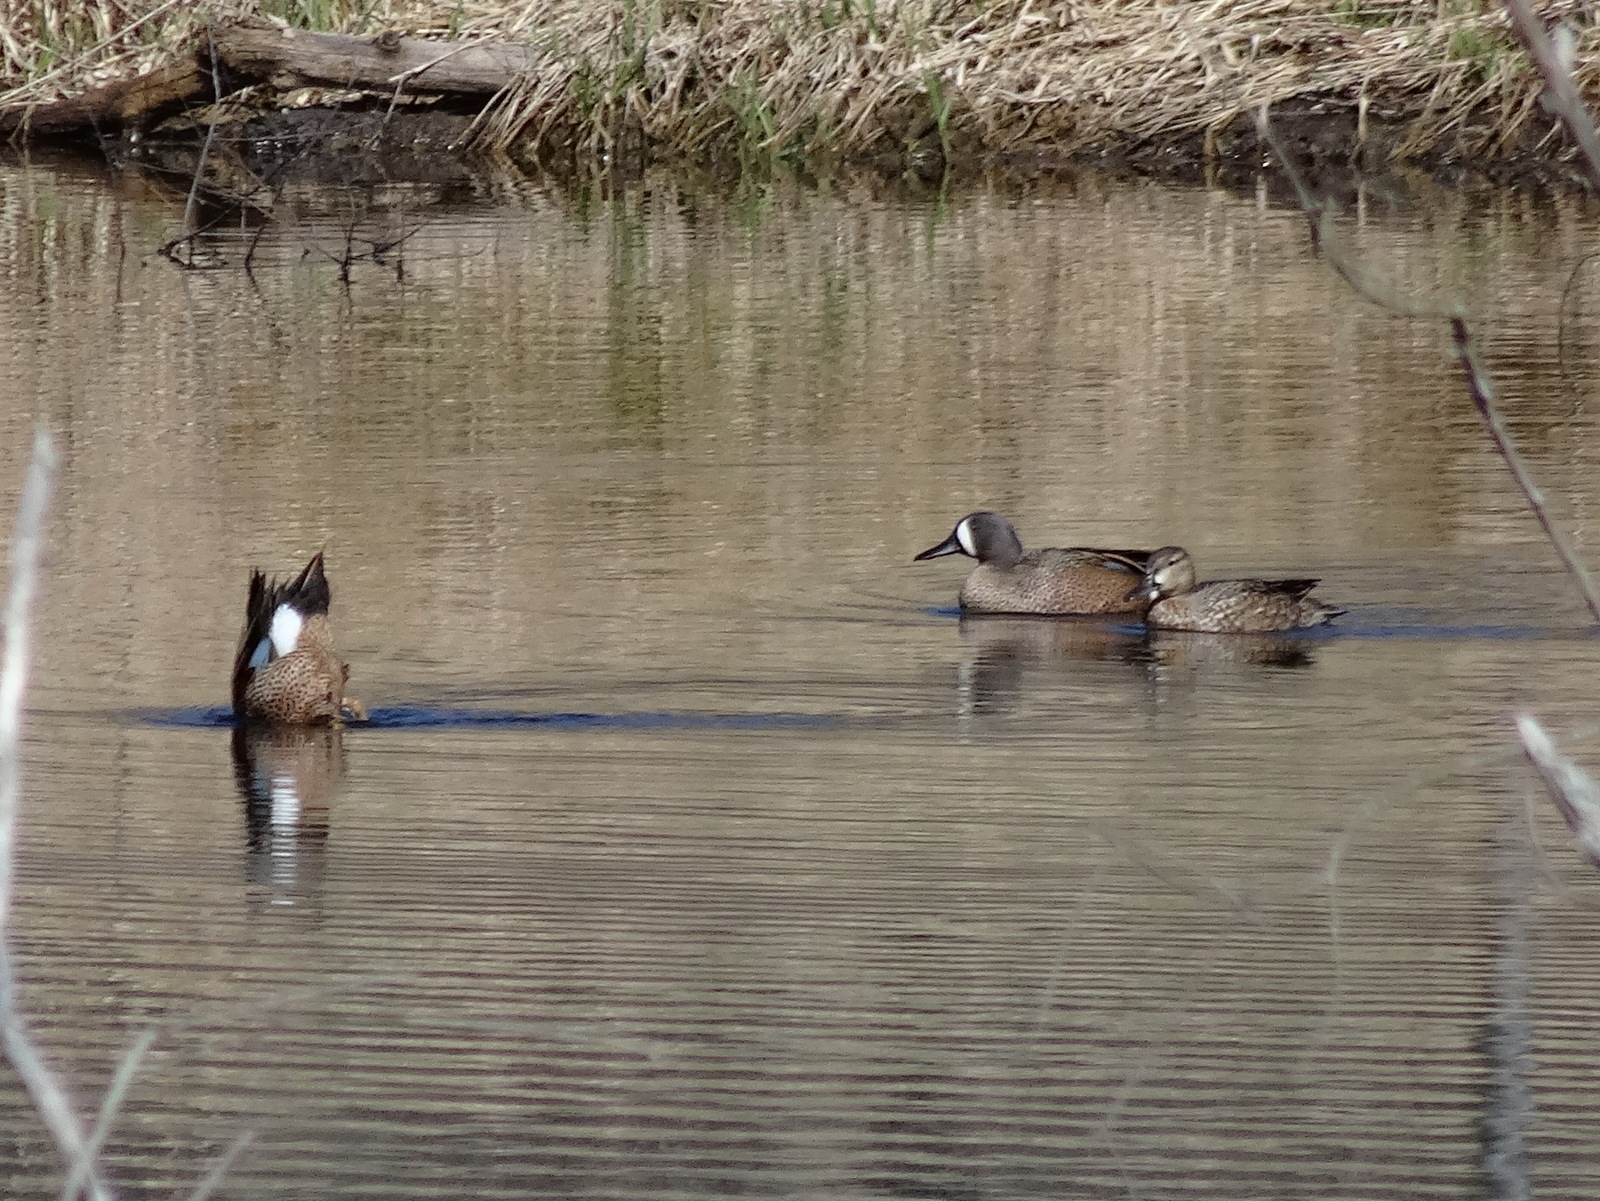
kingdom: Animalia
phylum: Chordata
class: Aves
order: Anseriformes
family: Anatidae
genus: Spatula
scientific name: Spatula discors
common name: Blue-winged teal
